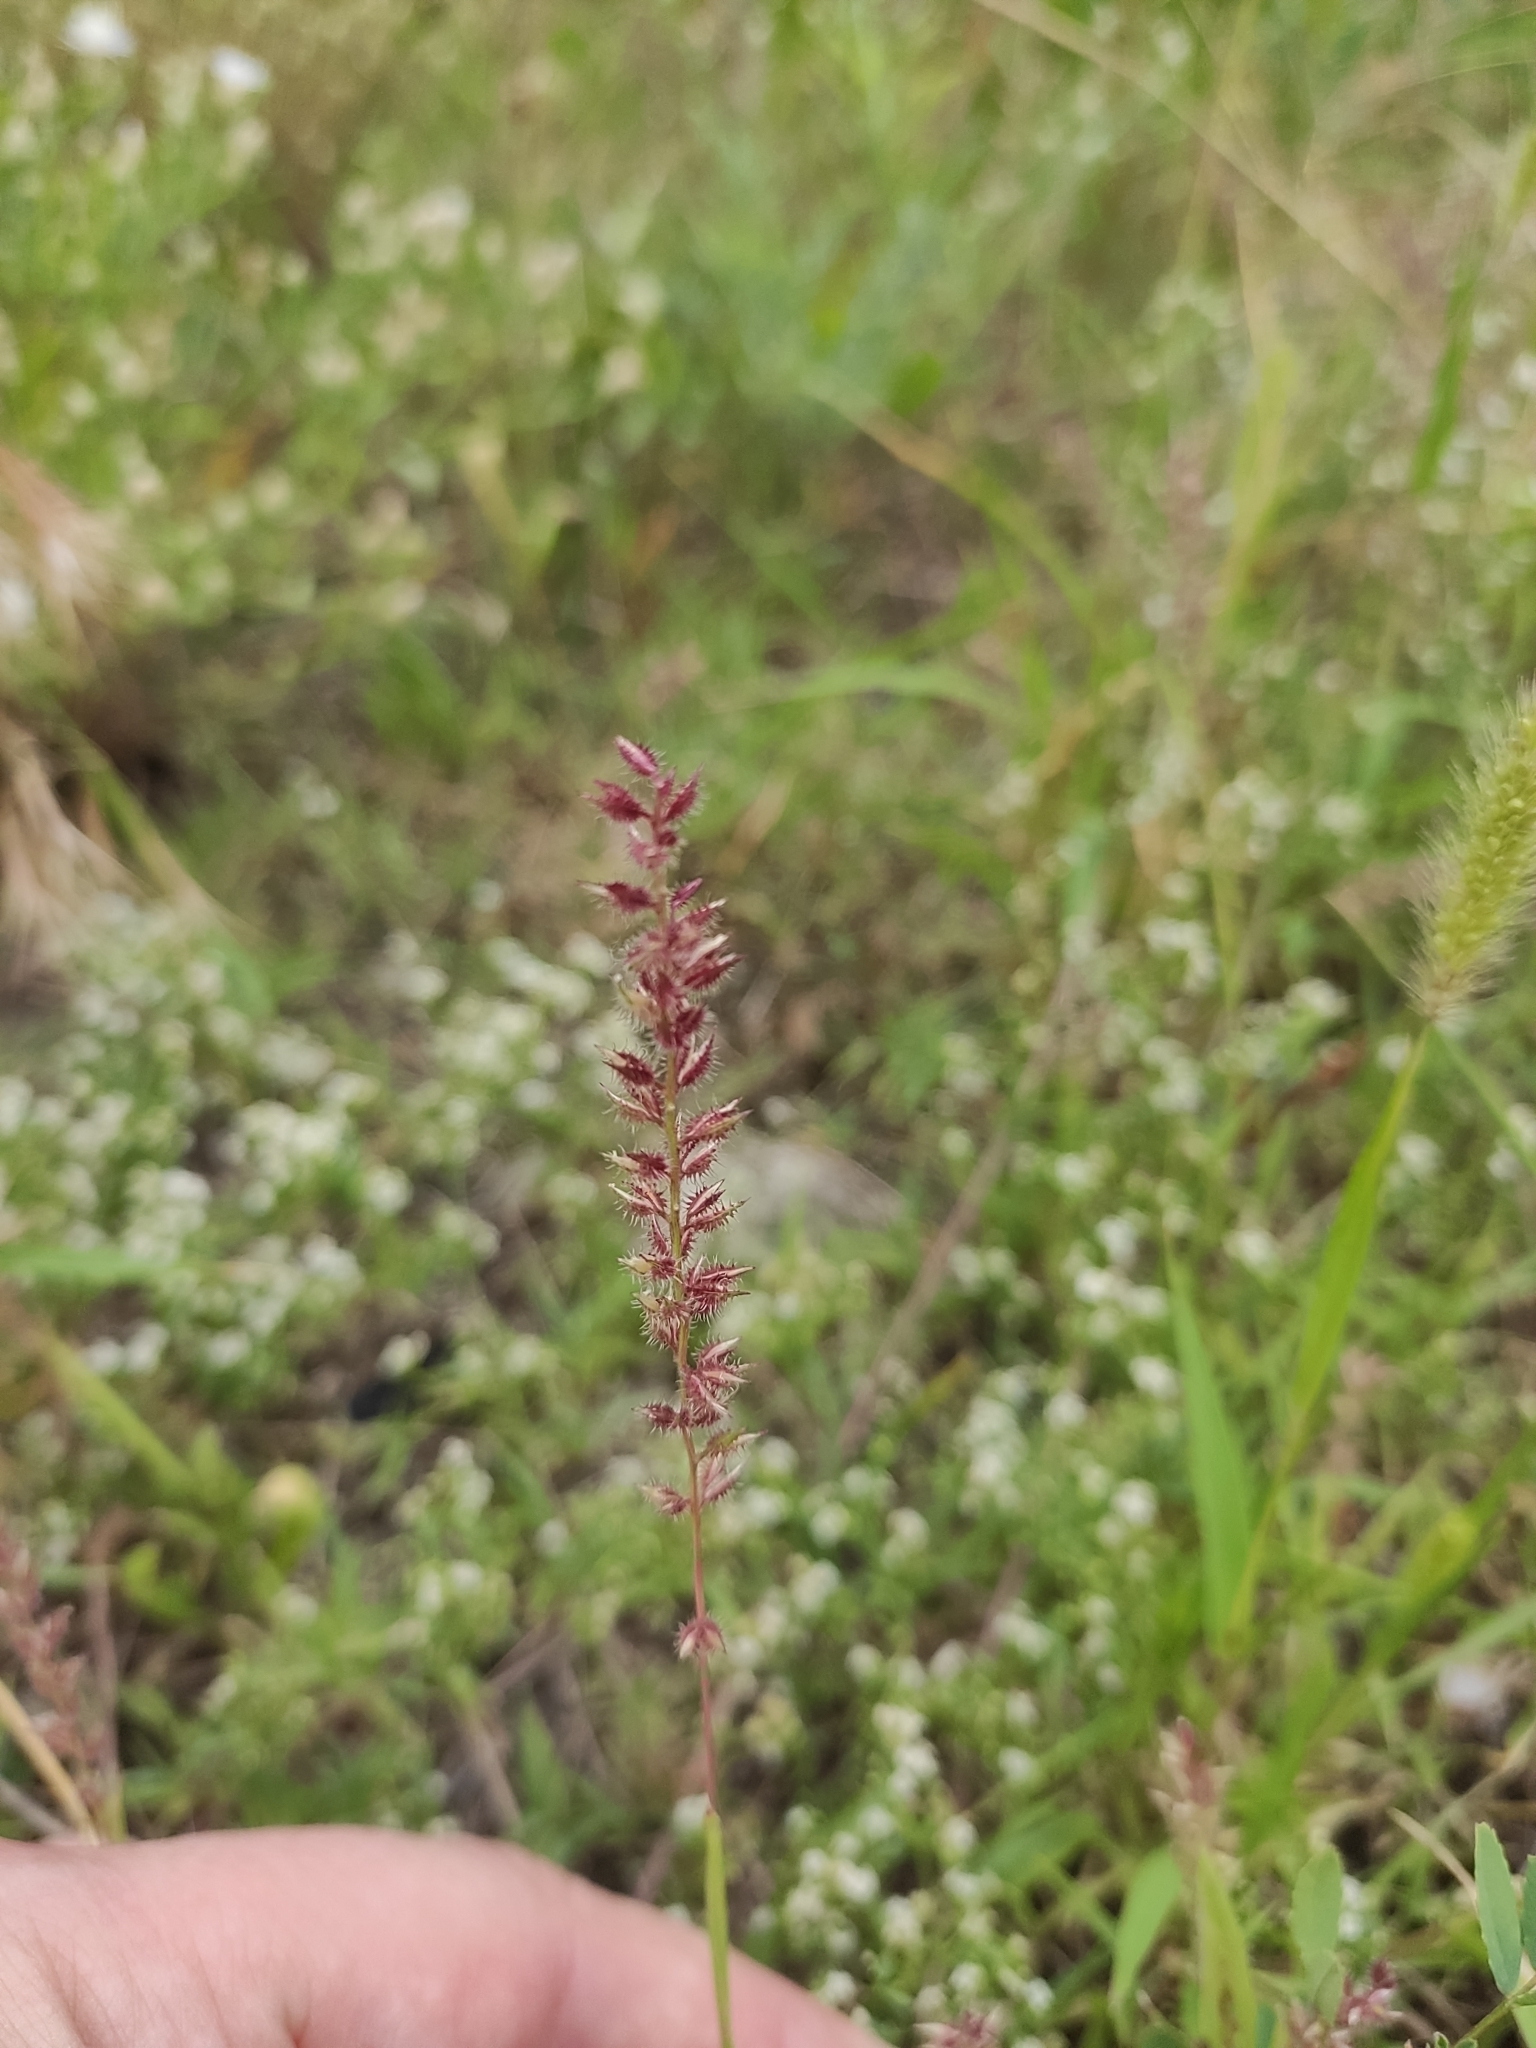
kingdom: Plantae
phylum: Tracheophyta
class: Liliopsida
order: Poales
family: Poaceae
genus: Tragus
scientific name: Tragus racemosus
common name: European bur-grass
